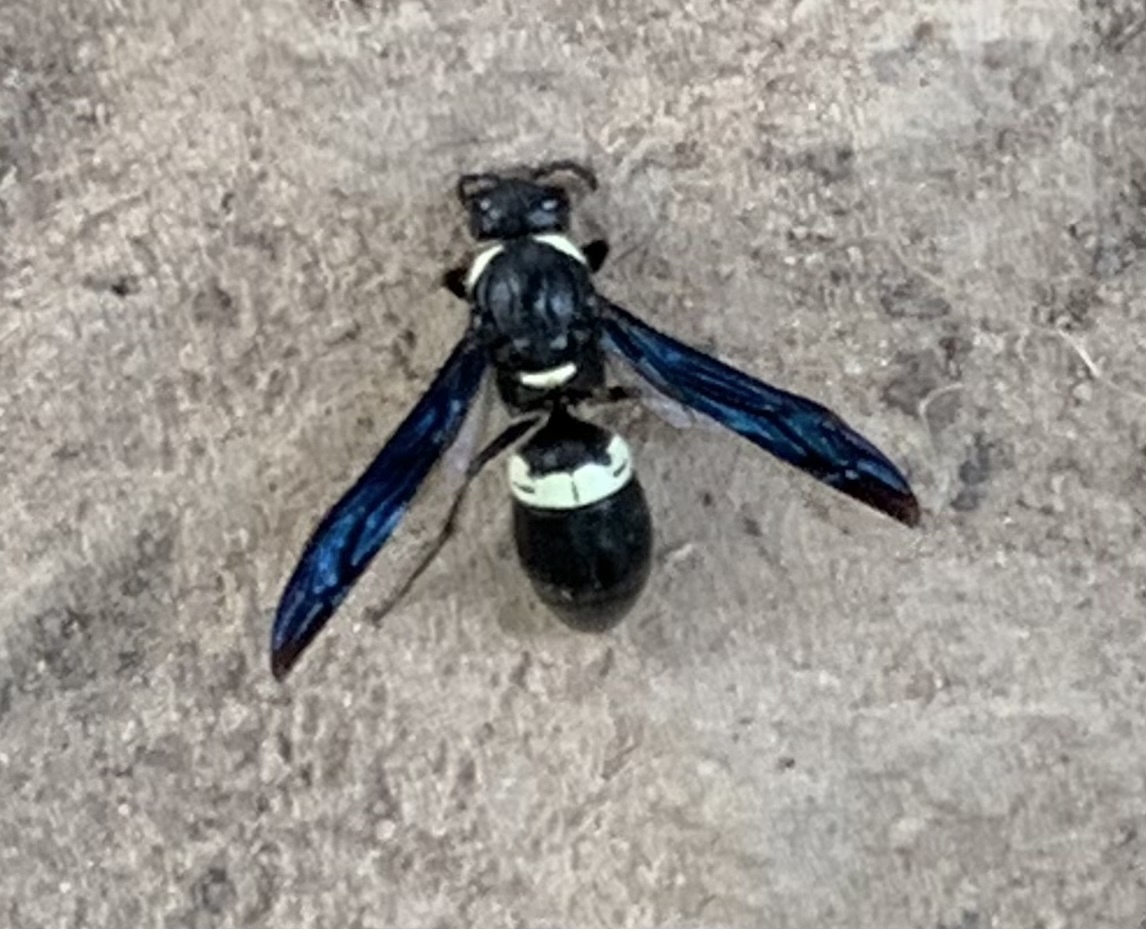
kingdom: Animalia
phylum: Arthropoda
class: Insecta
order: Hymenoptera
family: Eumenidae
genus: Monobia
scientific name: Monobia quadridens
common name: Four-toothed mason wasp
